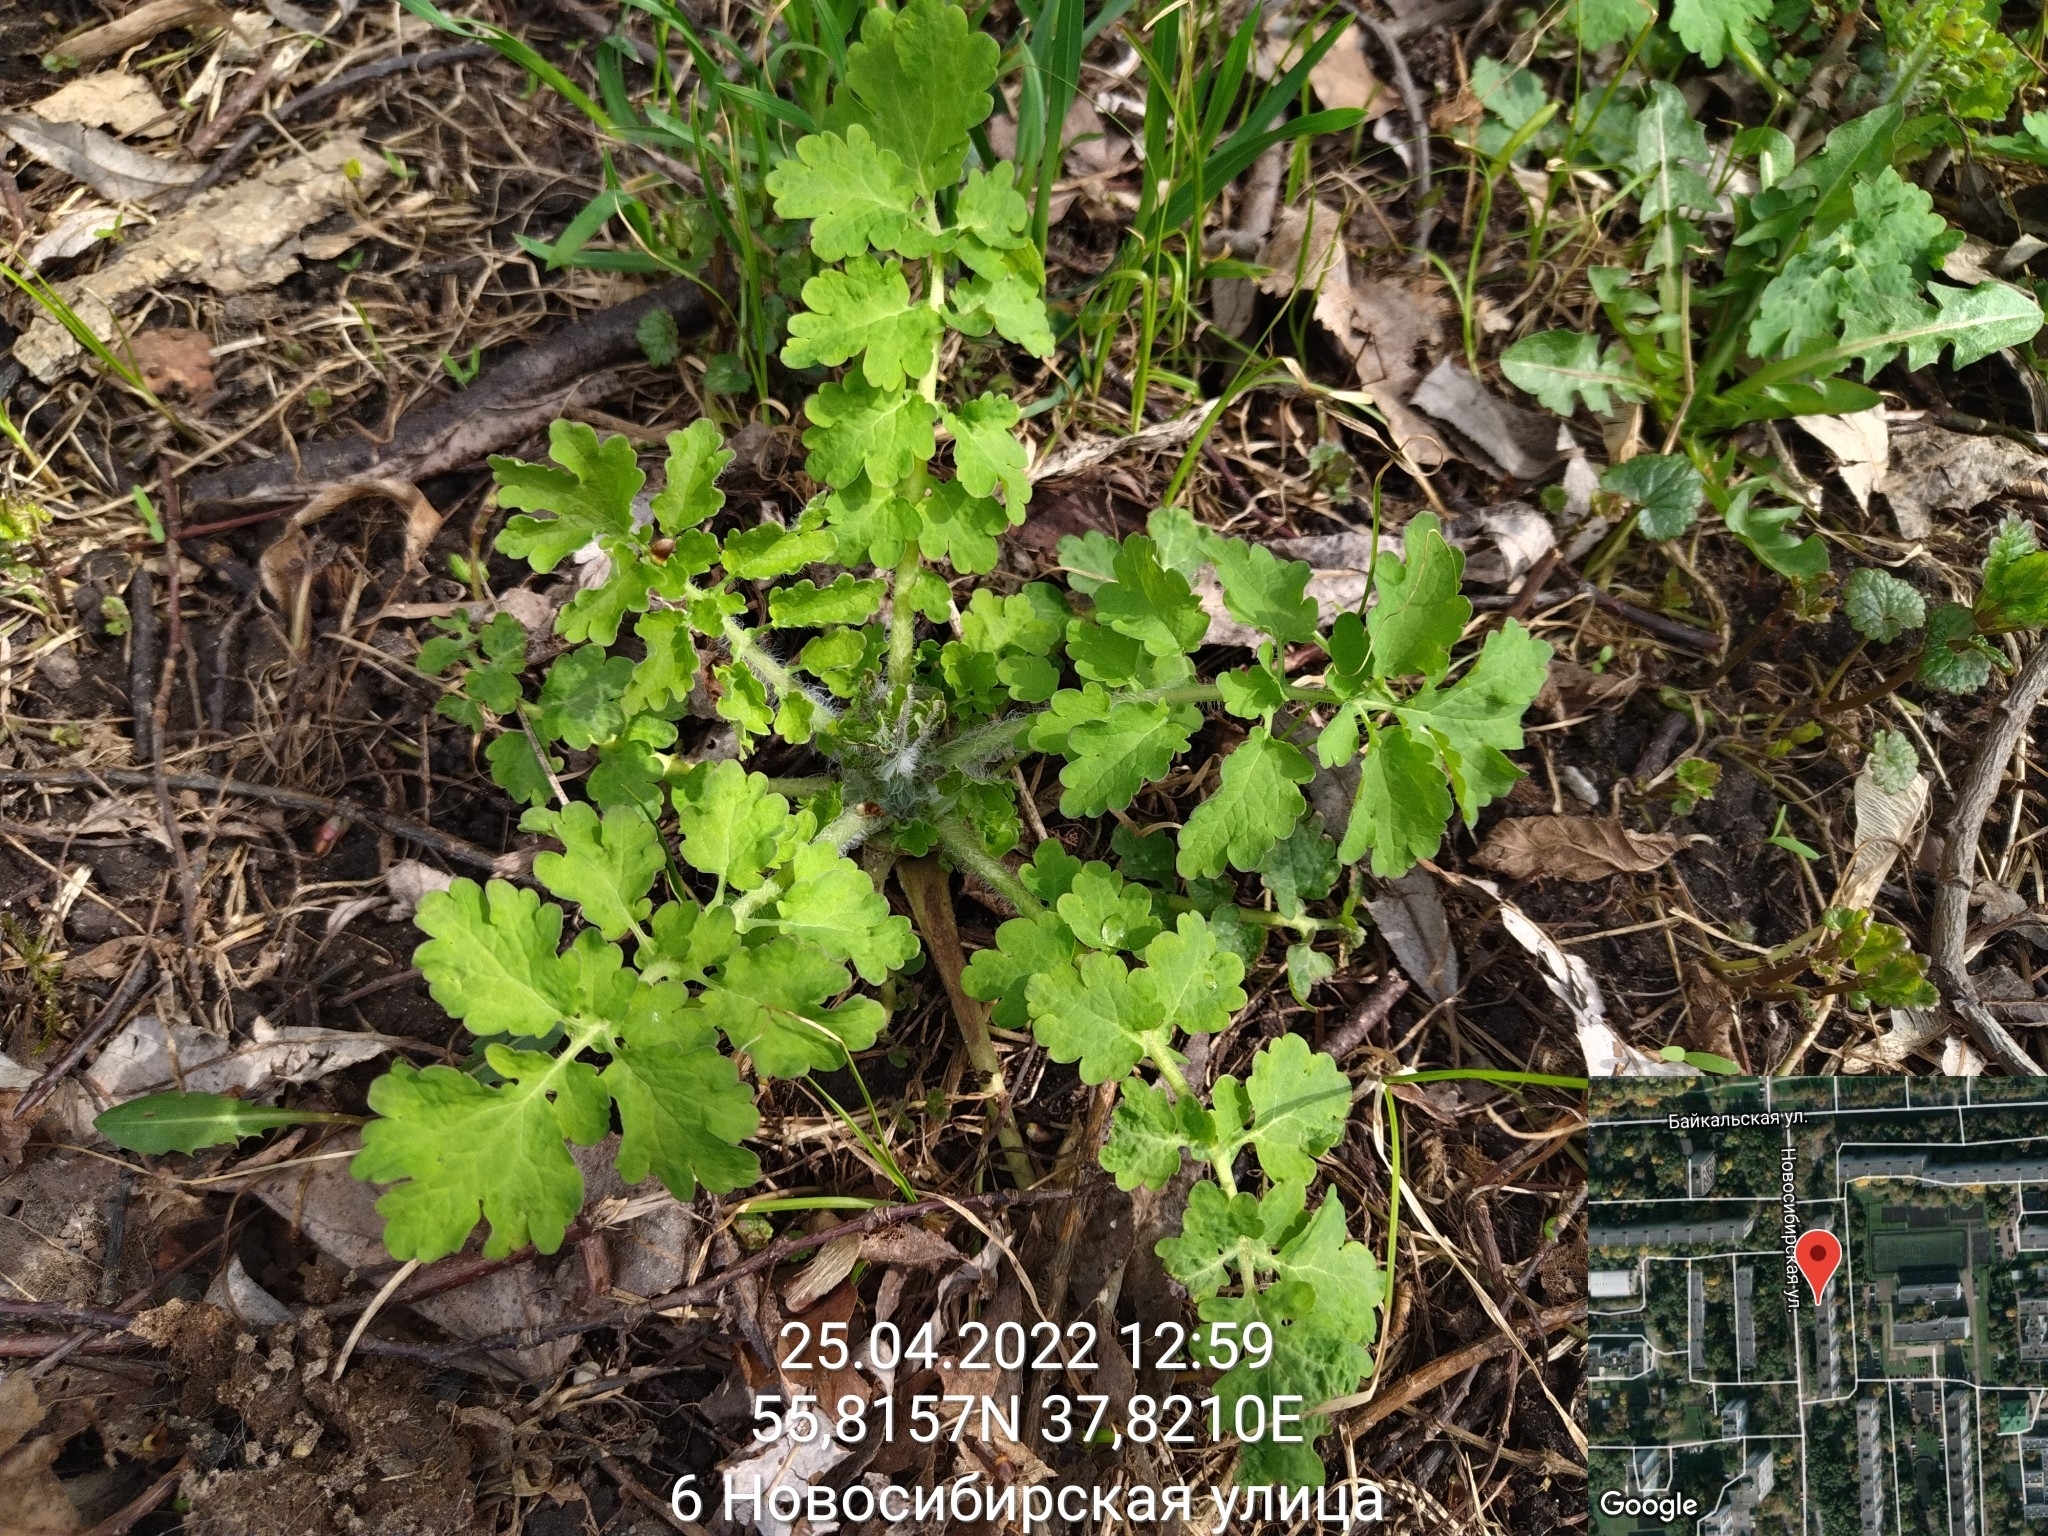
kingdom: Plantae
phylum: Tracheophyta
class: Magnoliopsida
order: Ranunculales
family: Papaveraceae
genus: Chelidonium
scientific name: Chelidonium majus
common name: Greater celandine
